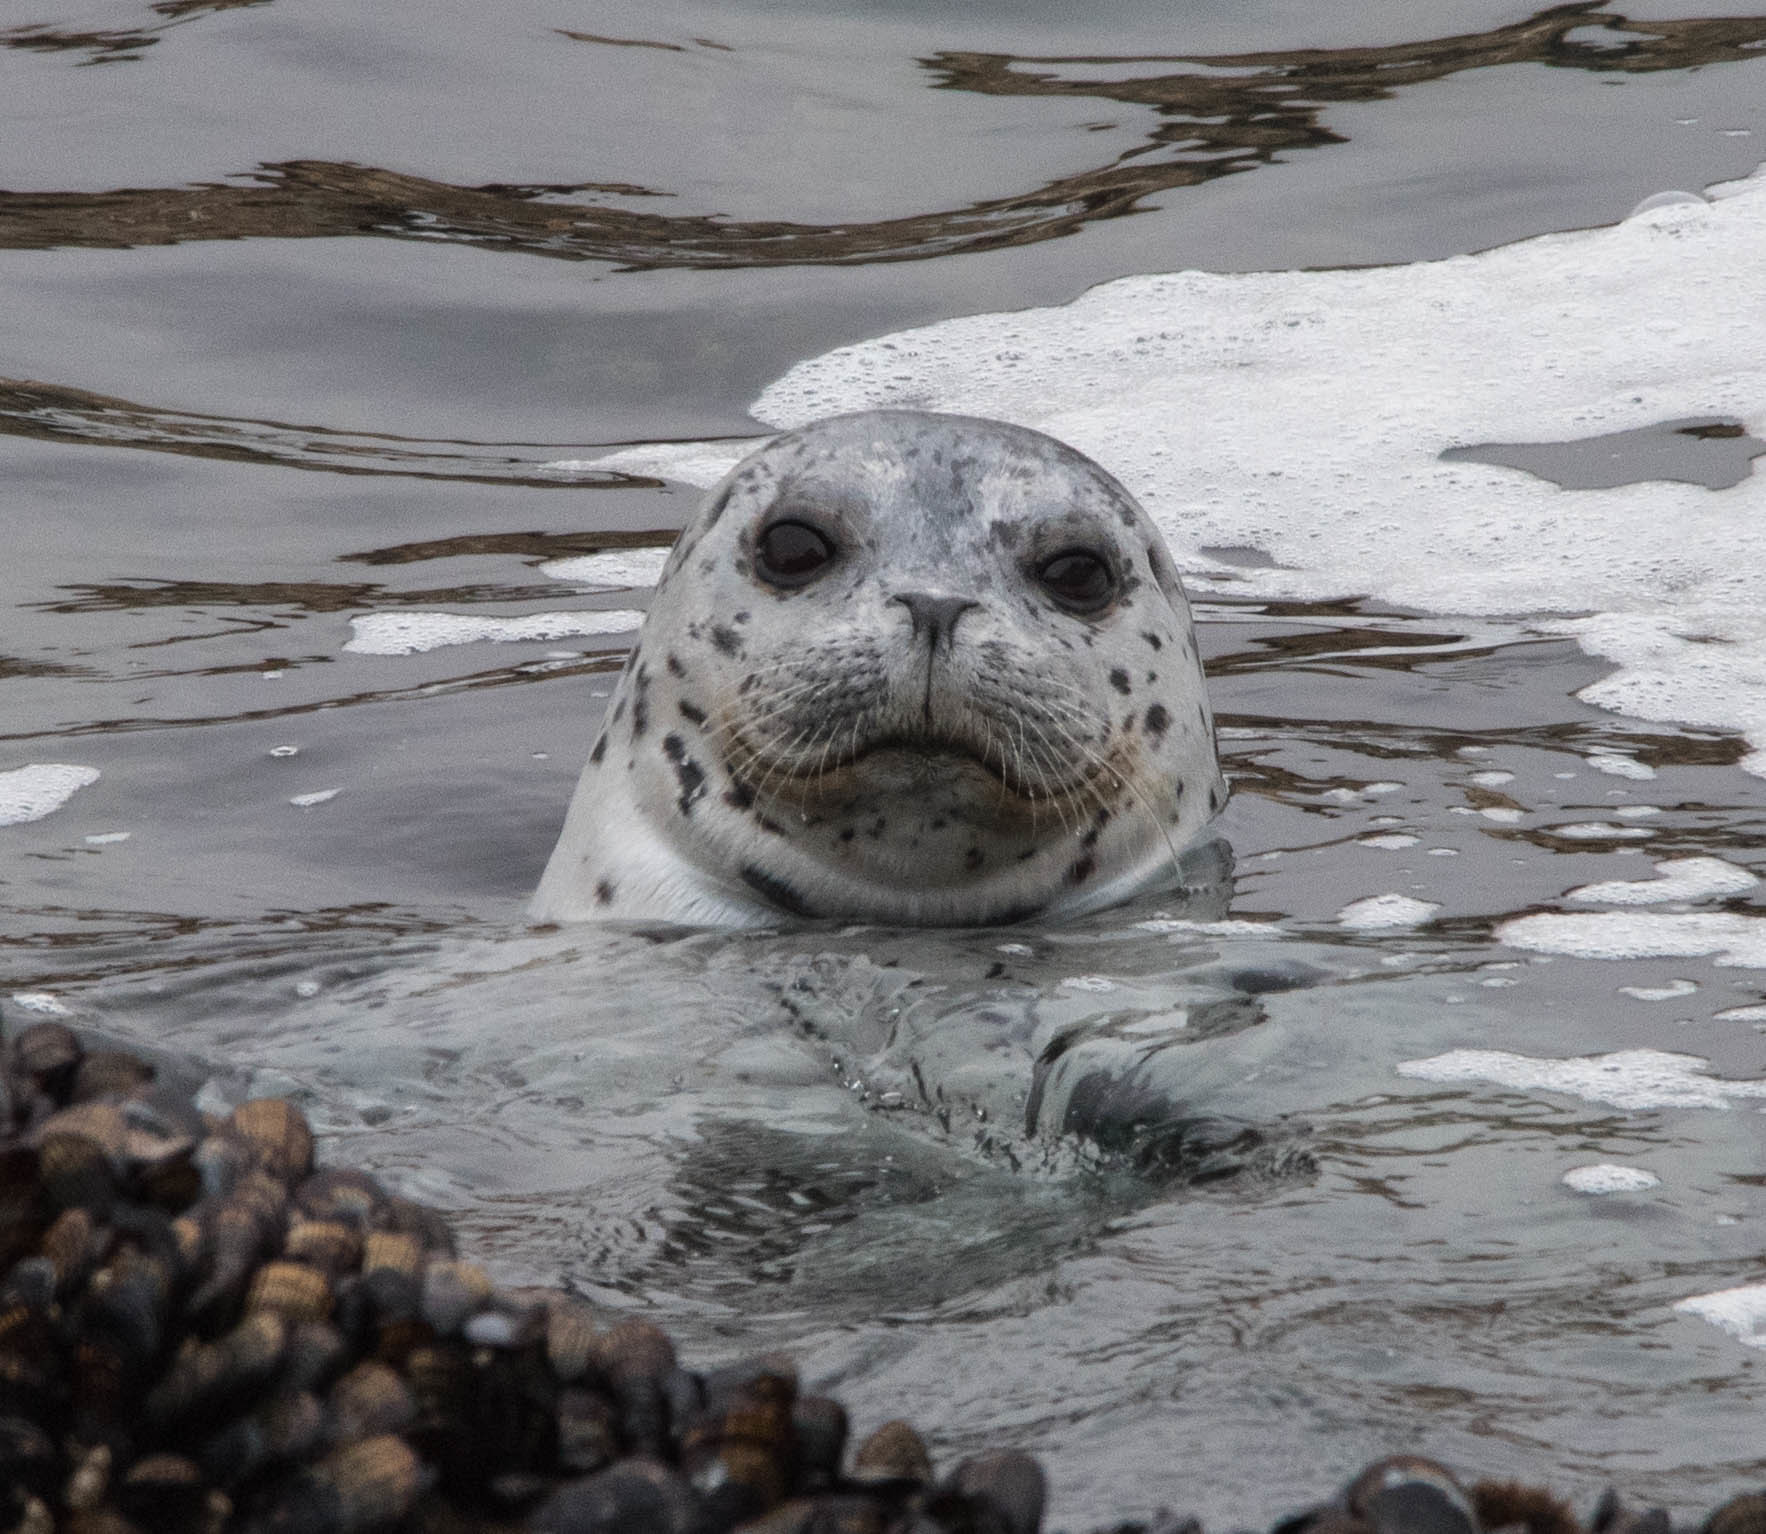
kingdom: Animalia
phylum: Chordata
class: Mammalia
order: Carnivora
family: Phocidae
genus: Phoca
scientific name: Phoca vitulina
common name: Harbor seal
